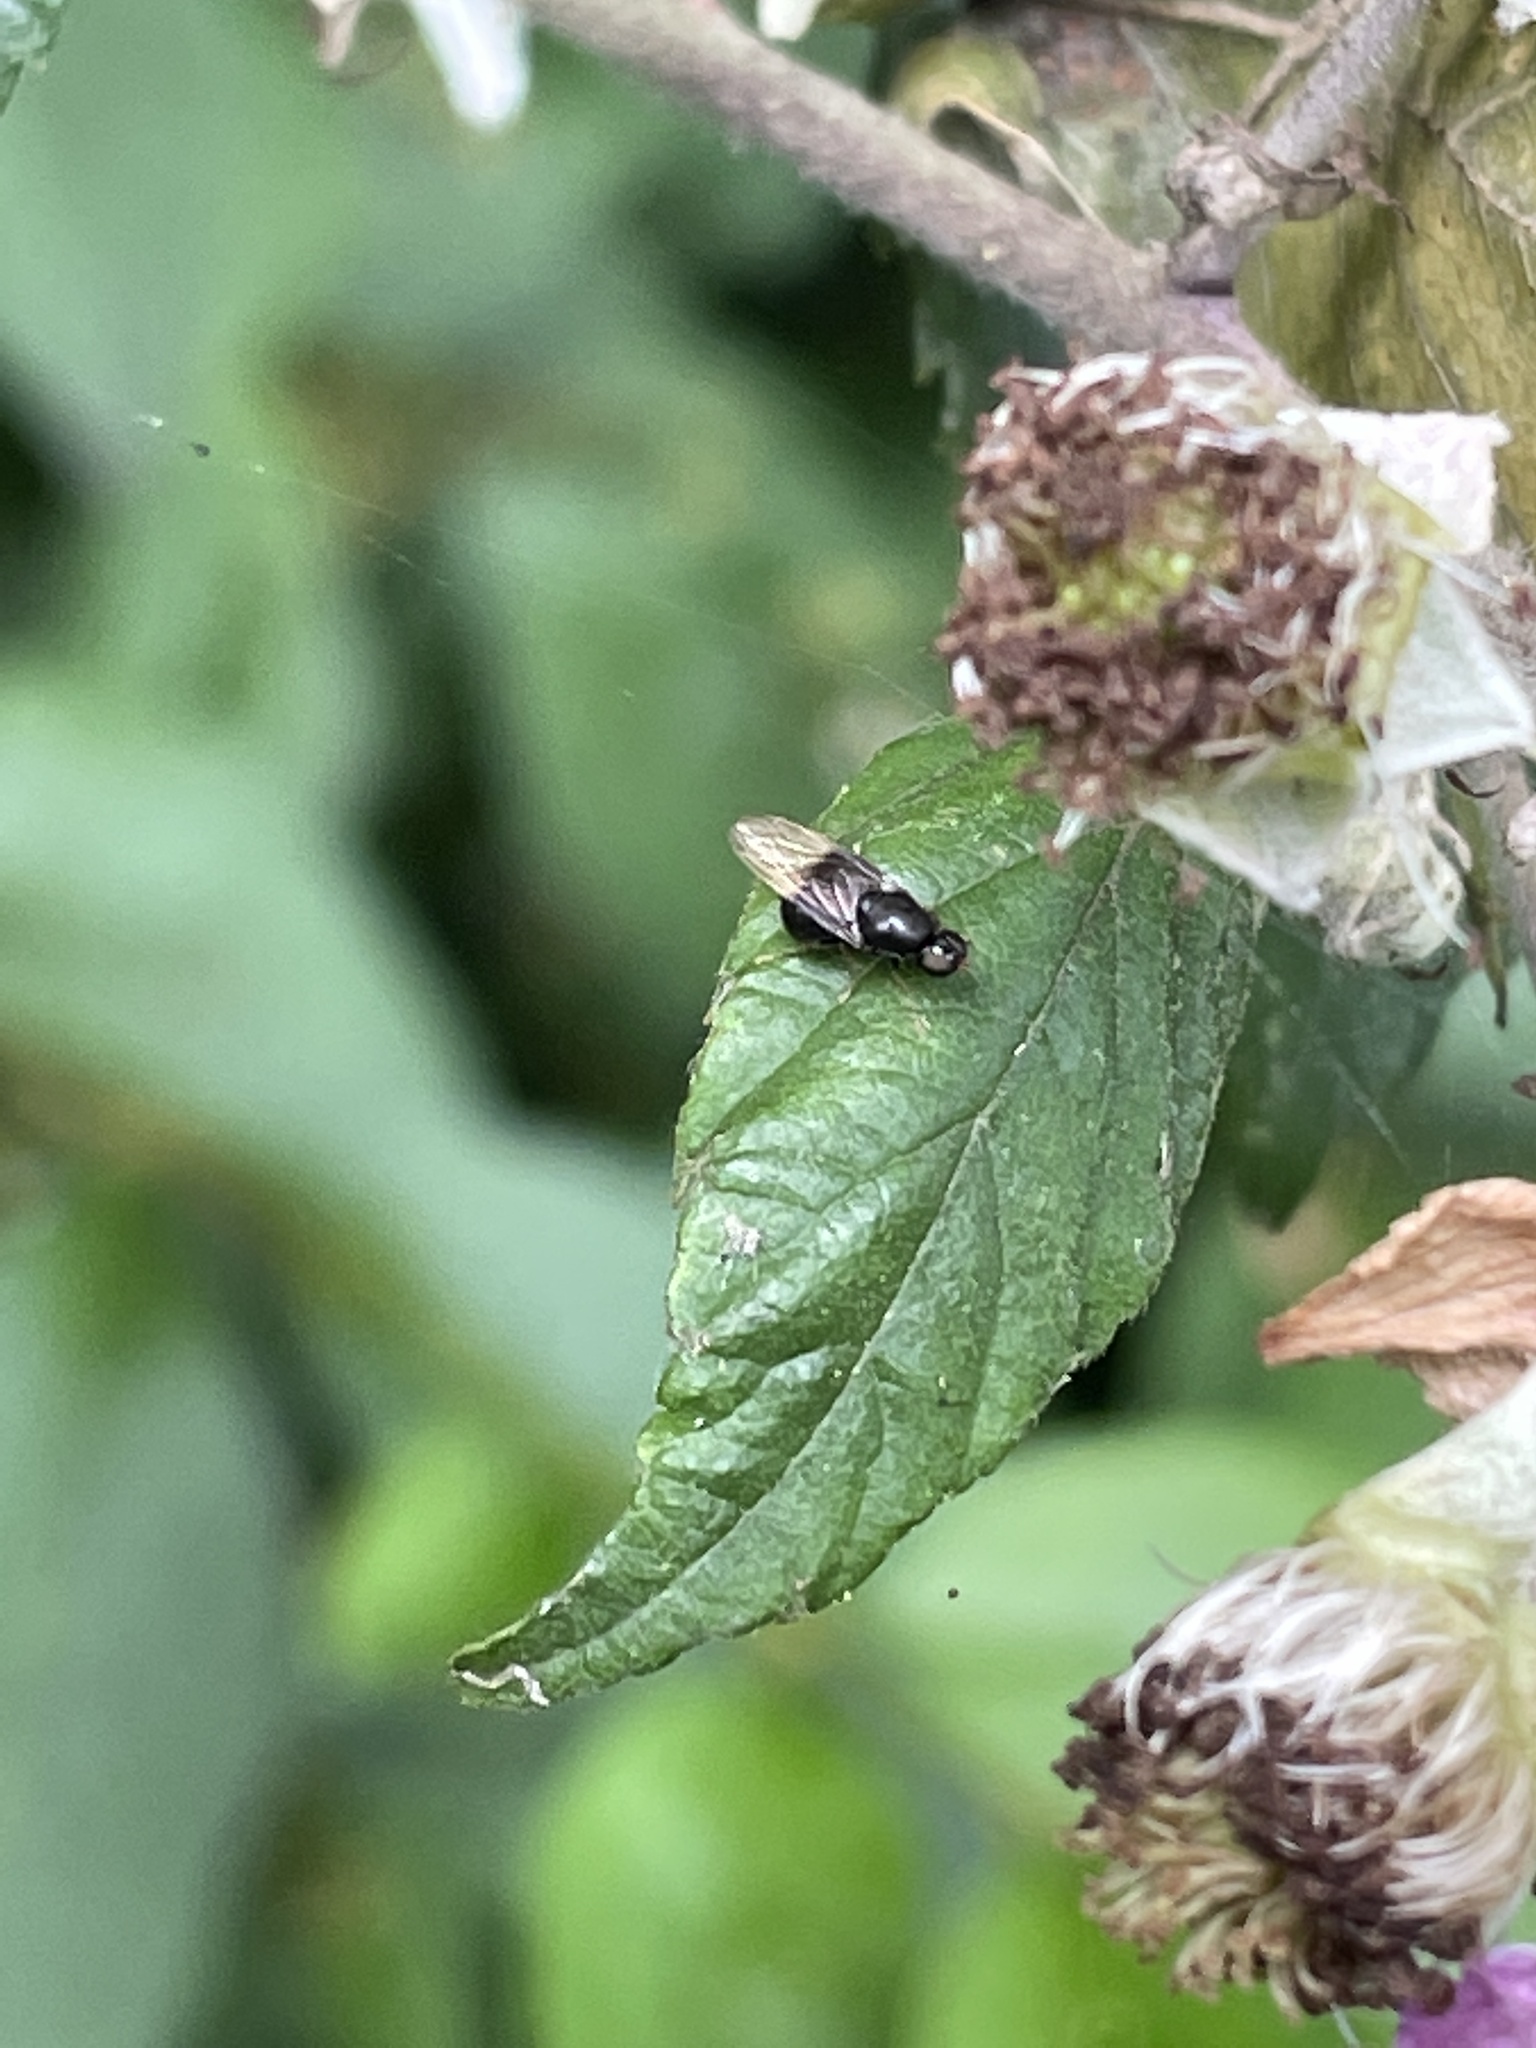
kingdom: Animalia
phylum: Arthropoda
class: Insecta
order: Diptera
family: Stratiomyidae
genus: Pachygaster
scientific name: Pachygaster atra
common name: Dark-winged black
